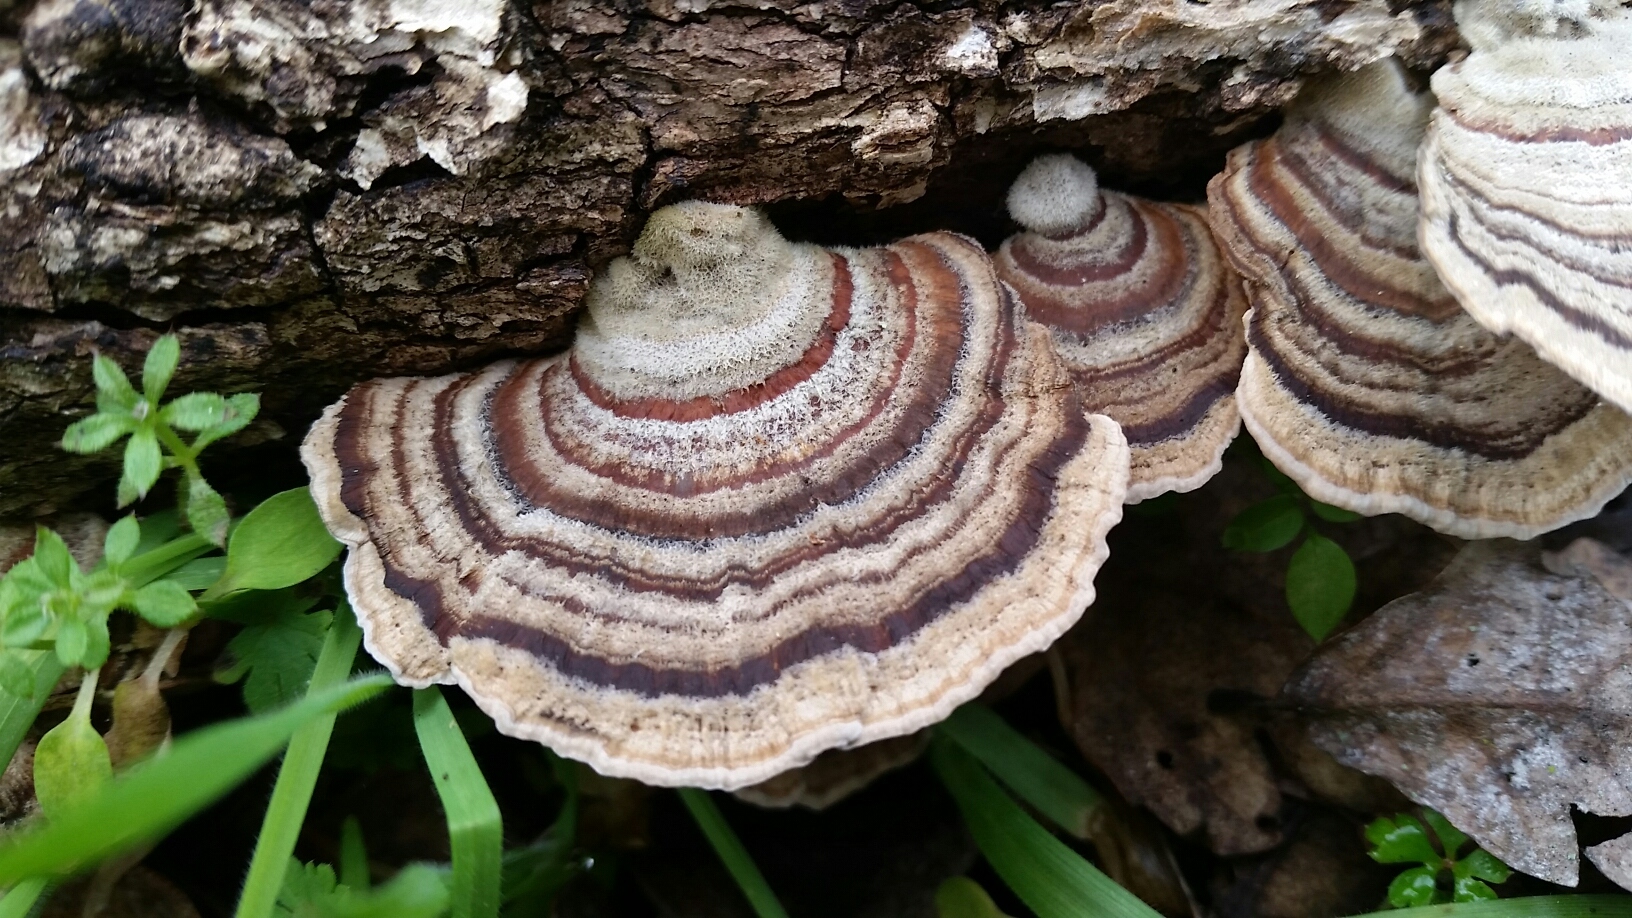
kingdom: Fungi
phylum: Basidiomycota
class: Agaricomycetes
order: Russulales
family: Stereaceae
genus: Stereum
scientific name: Stereum hirsutum
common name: Hairy curtain crust
